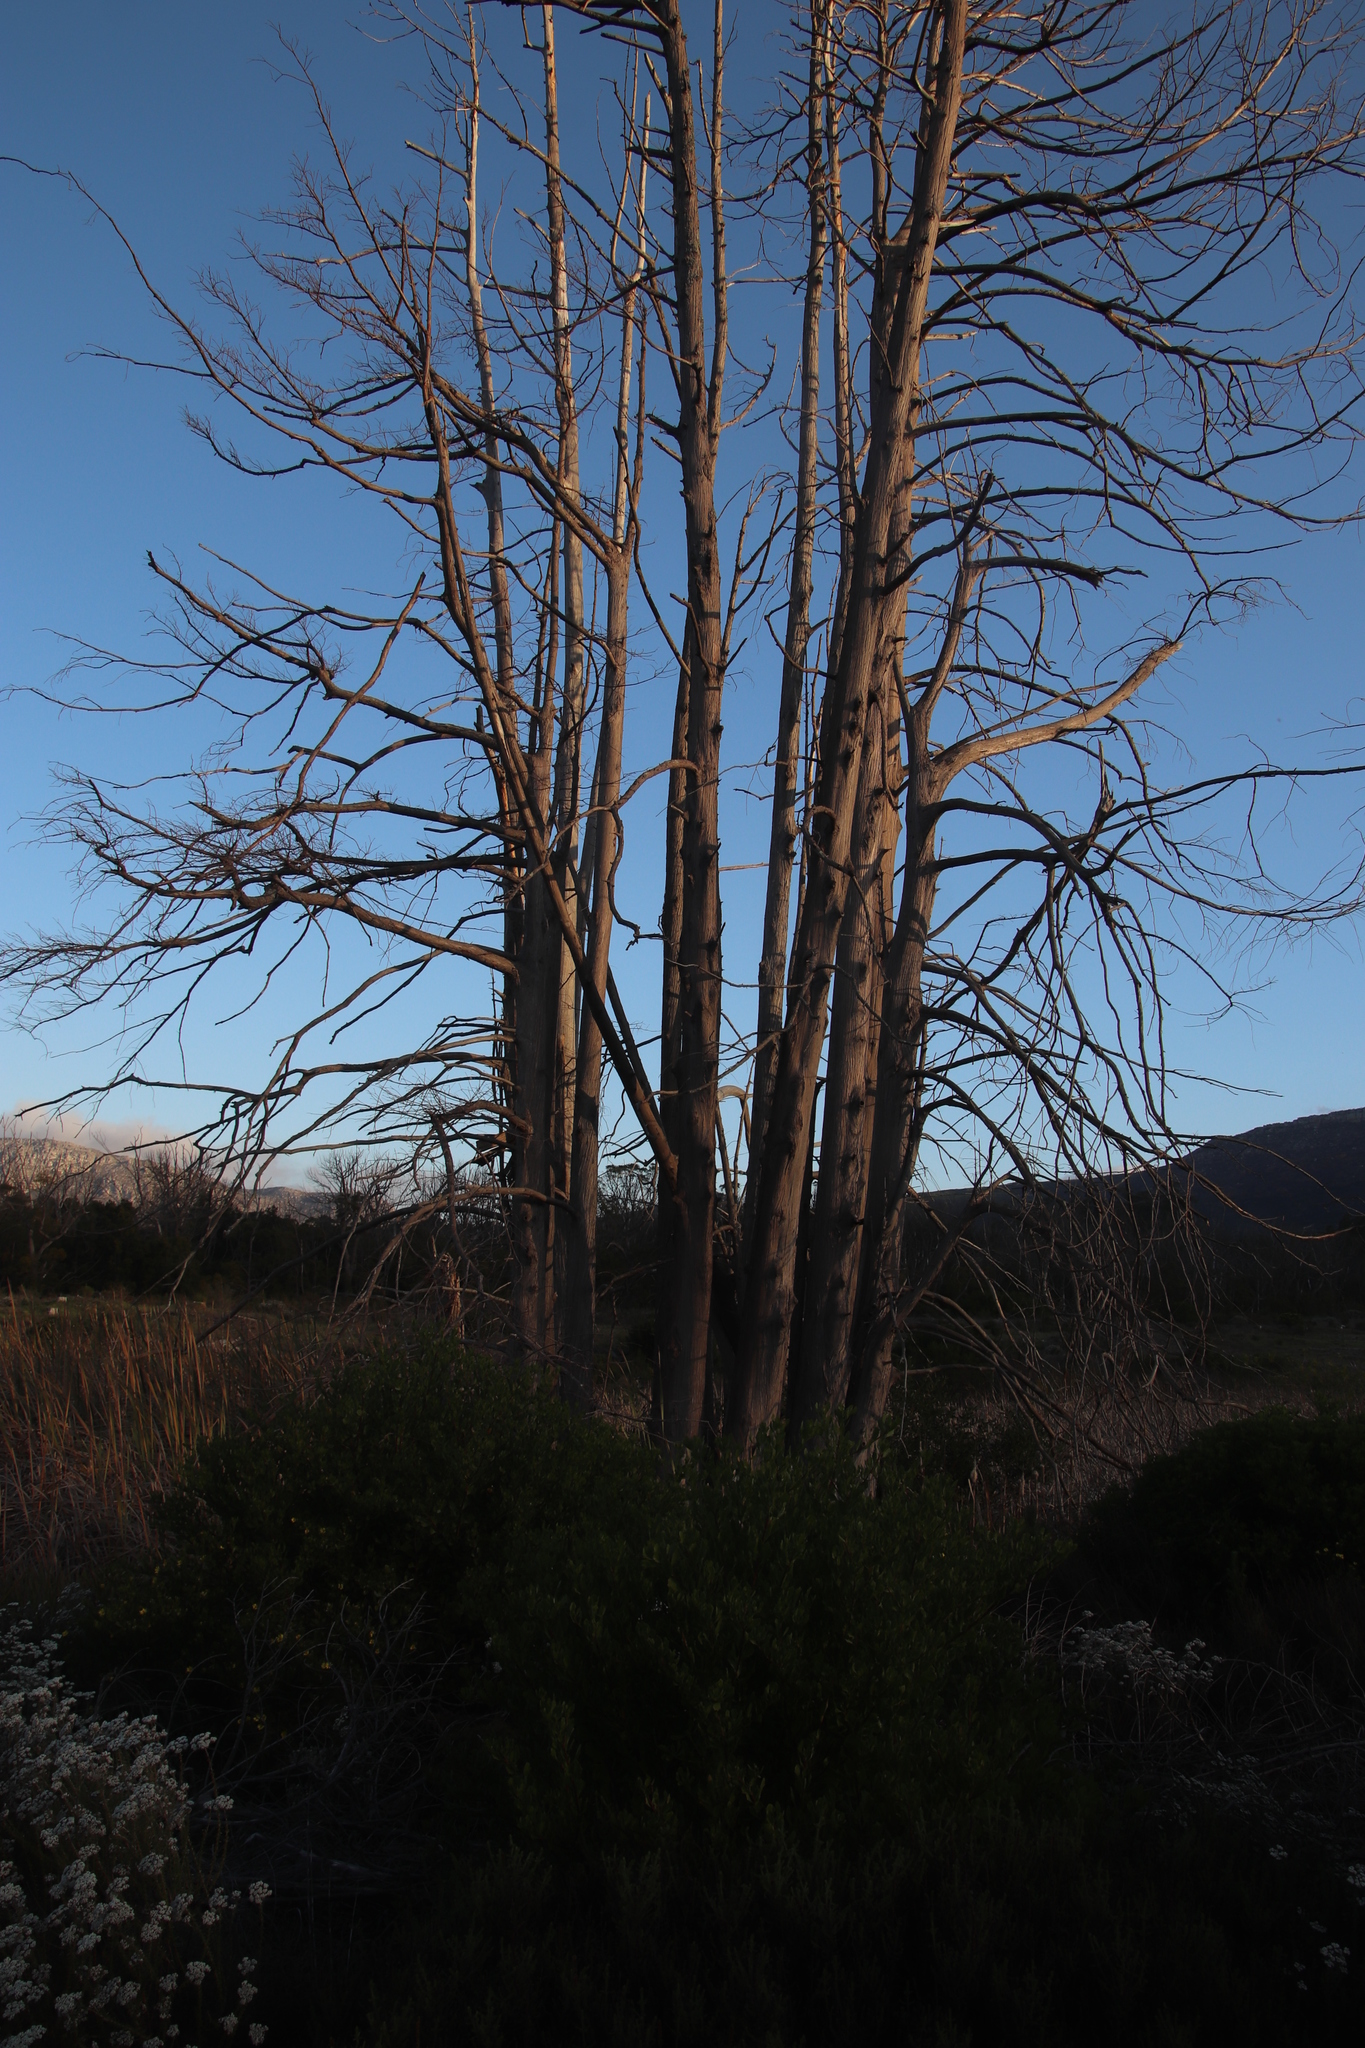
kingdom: Plantae
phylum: Tracheophyta
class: Pinopsida
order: Pinales
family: Cupressaceae
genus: Taxodium
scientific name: Taxodium distichum
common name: Bald cypress
